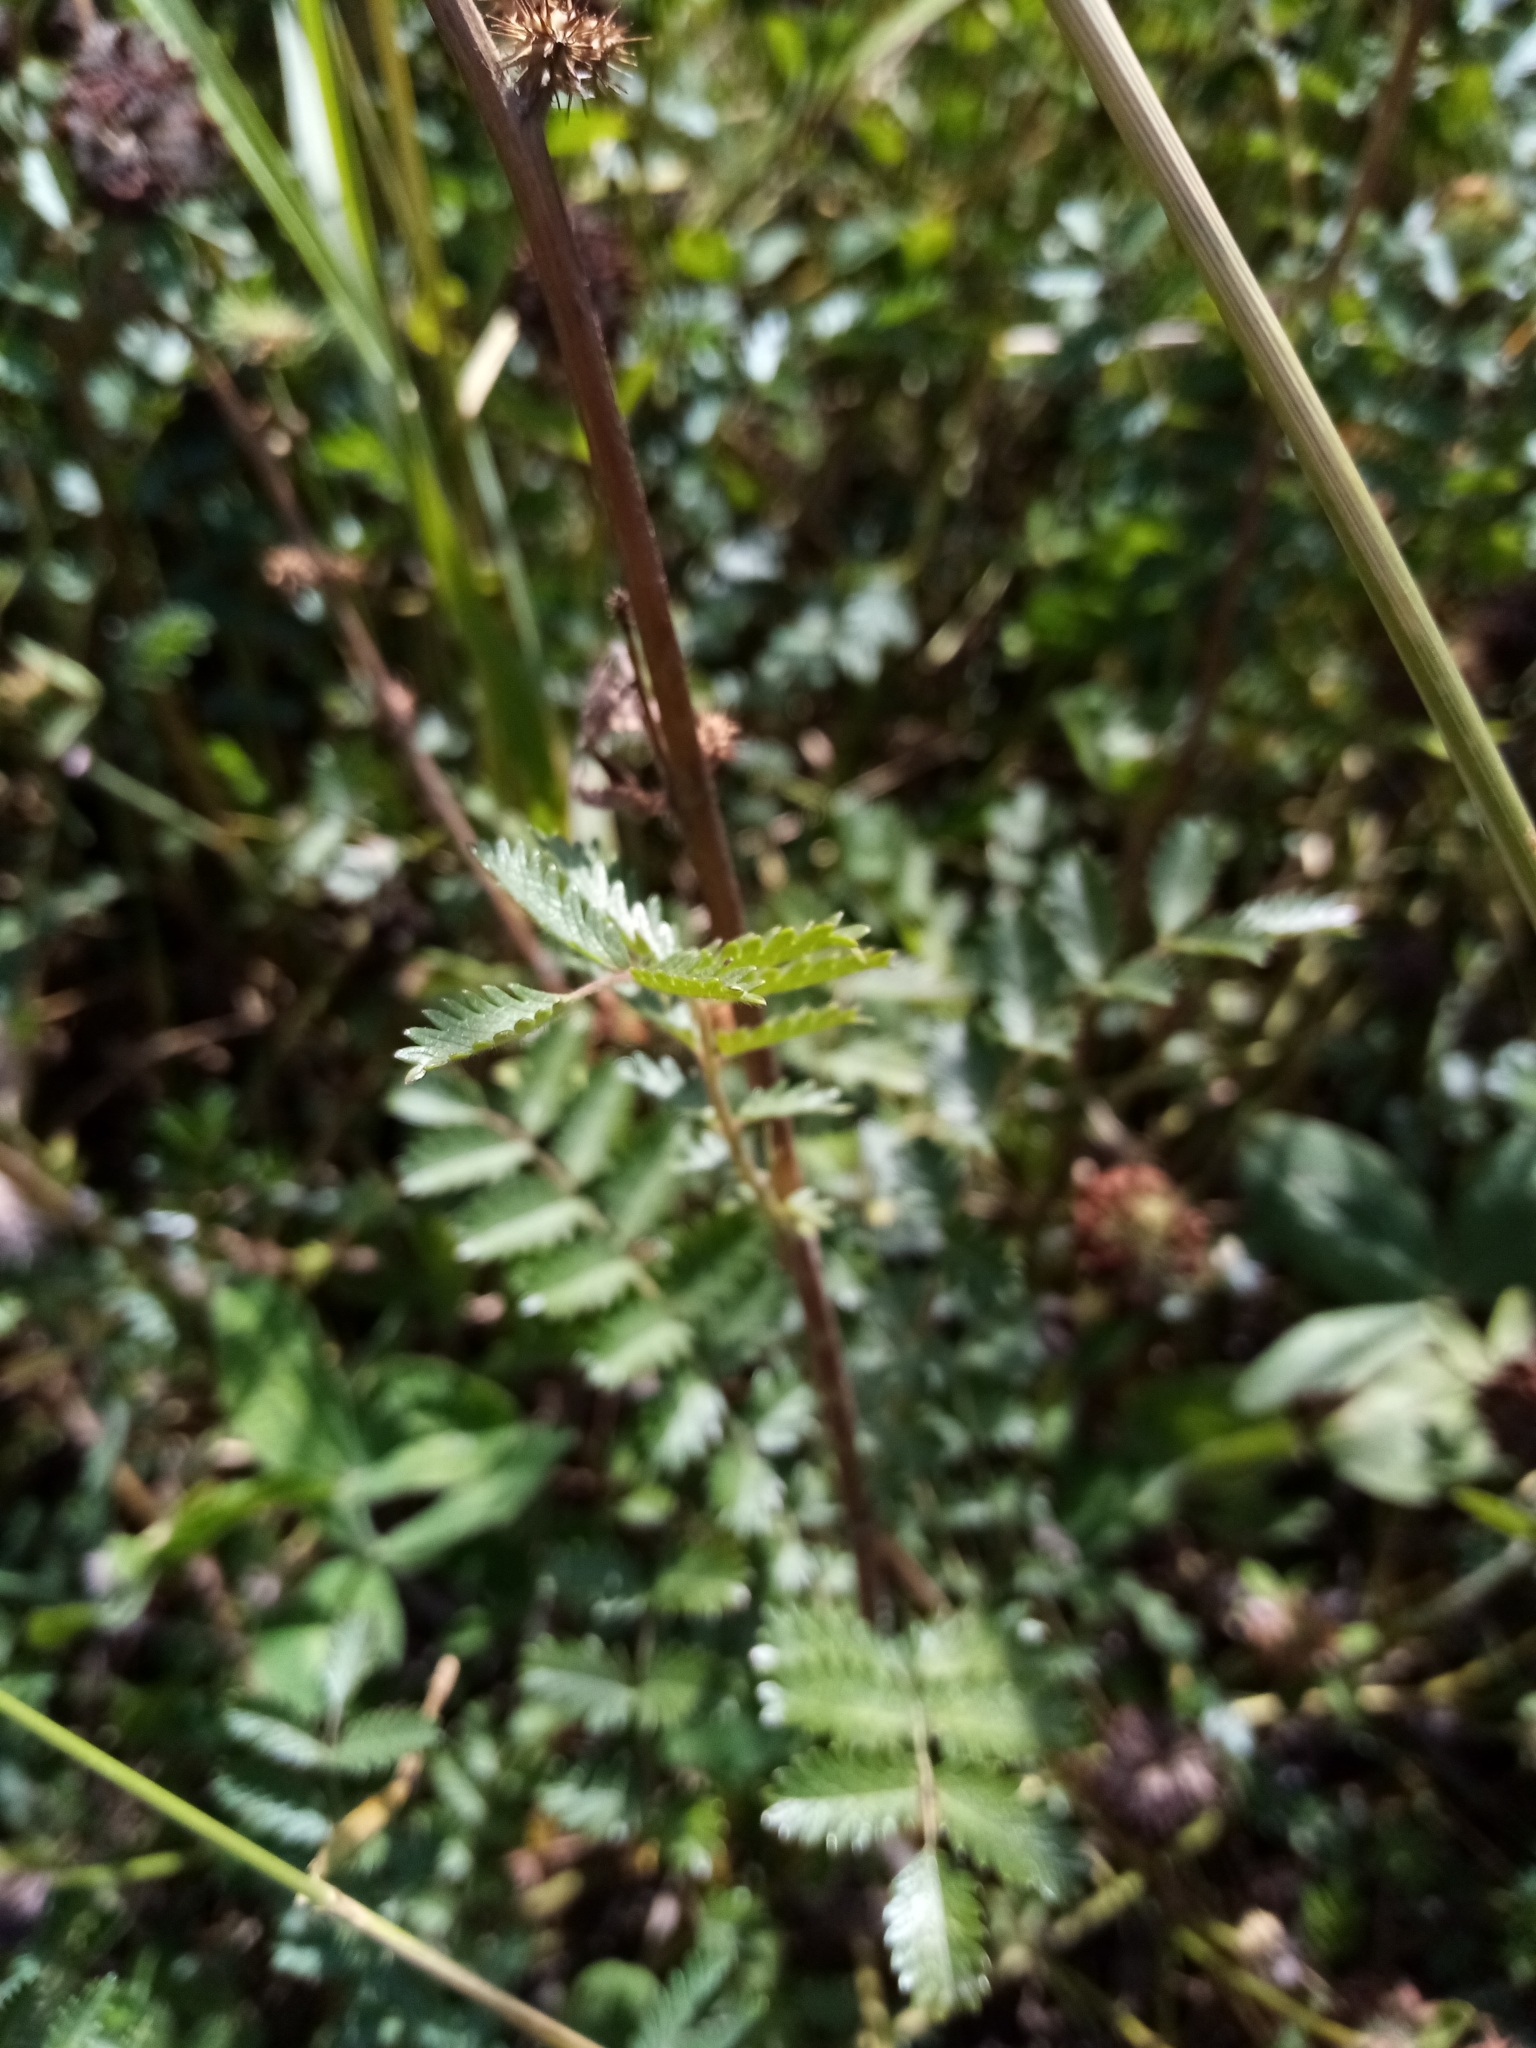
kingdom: Plantae
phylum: Tracheophyta
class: Magnoliopsida
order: Rosales
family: Rosaceae
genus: Acaena
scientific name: Acaena agnipila
